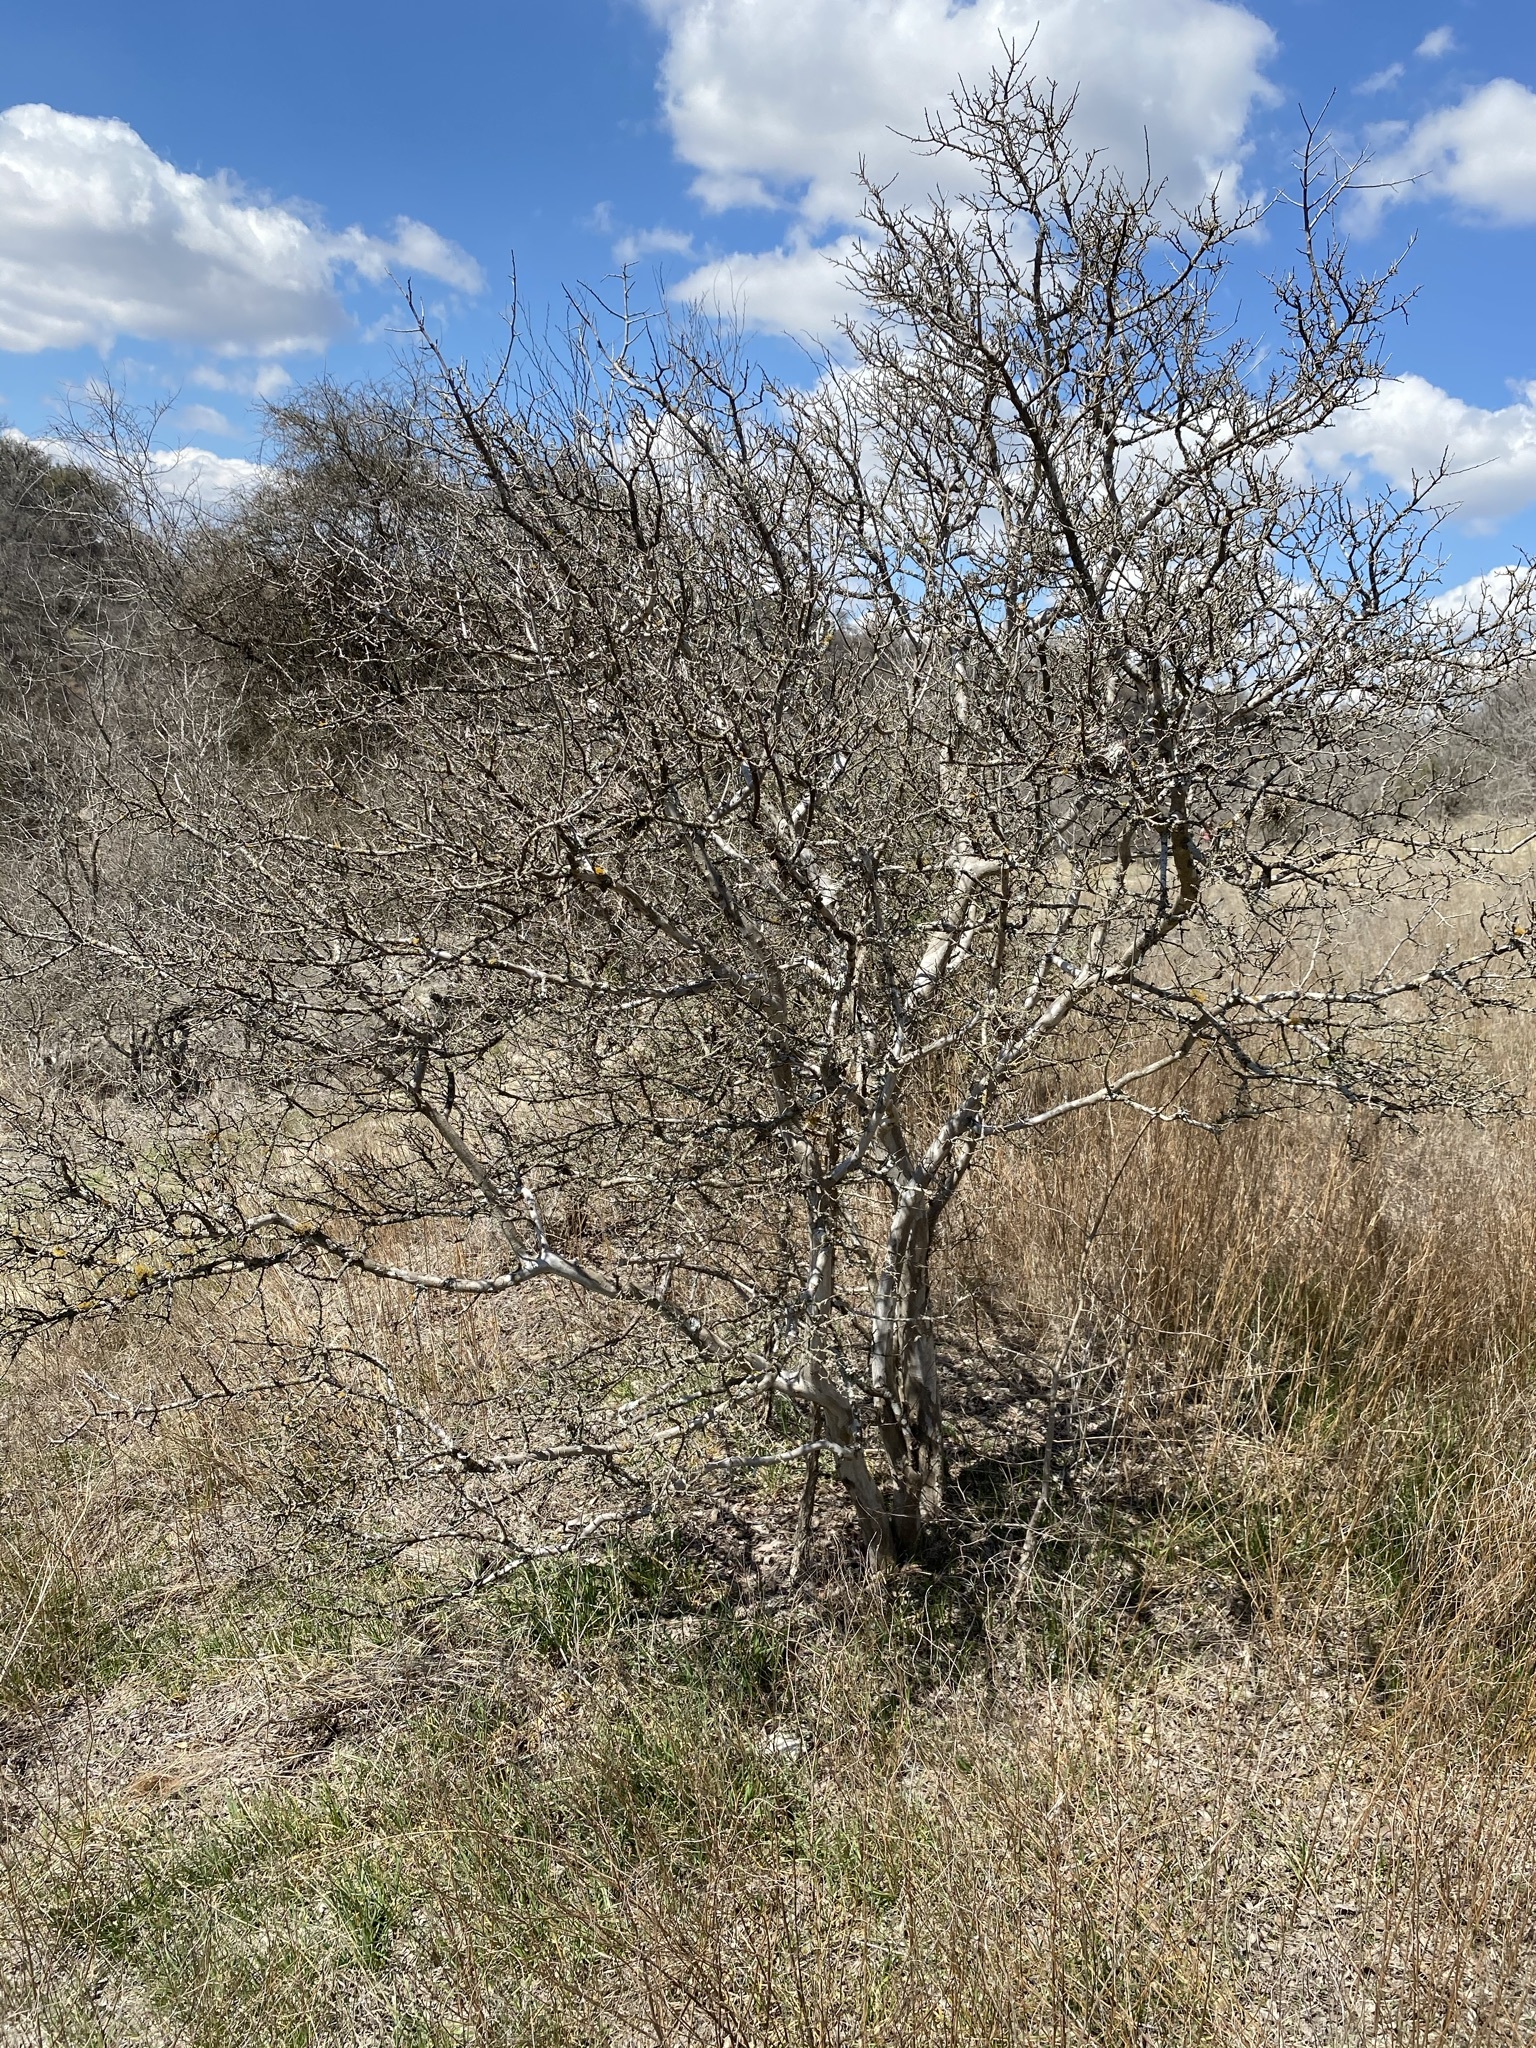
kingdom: Plantae
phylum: Tracheophyta
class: Magnoliopsida
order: Ericales
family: Ebenaceae
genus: Diospyros
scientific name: Diospyros texana
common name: Texas persimmon
